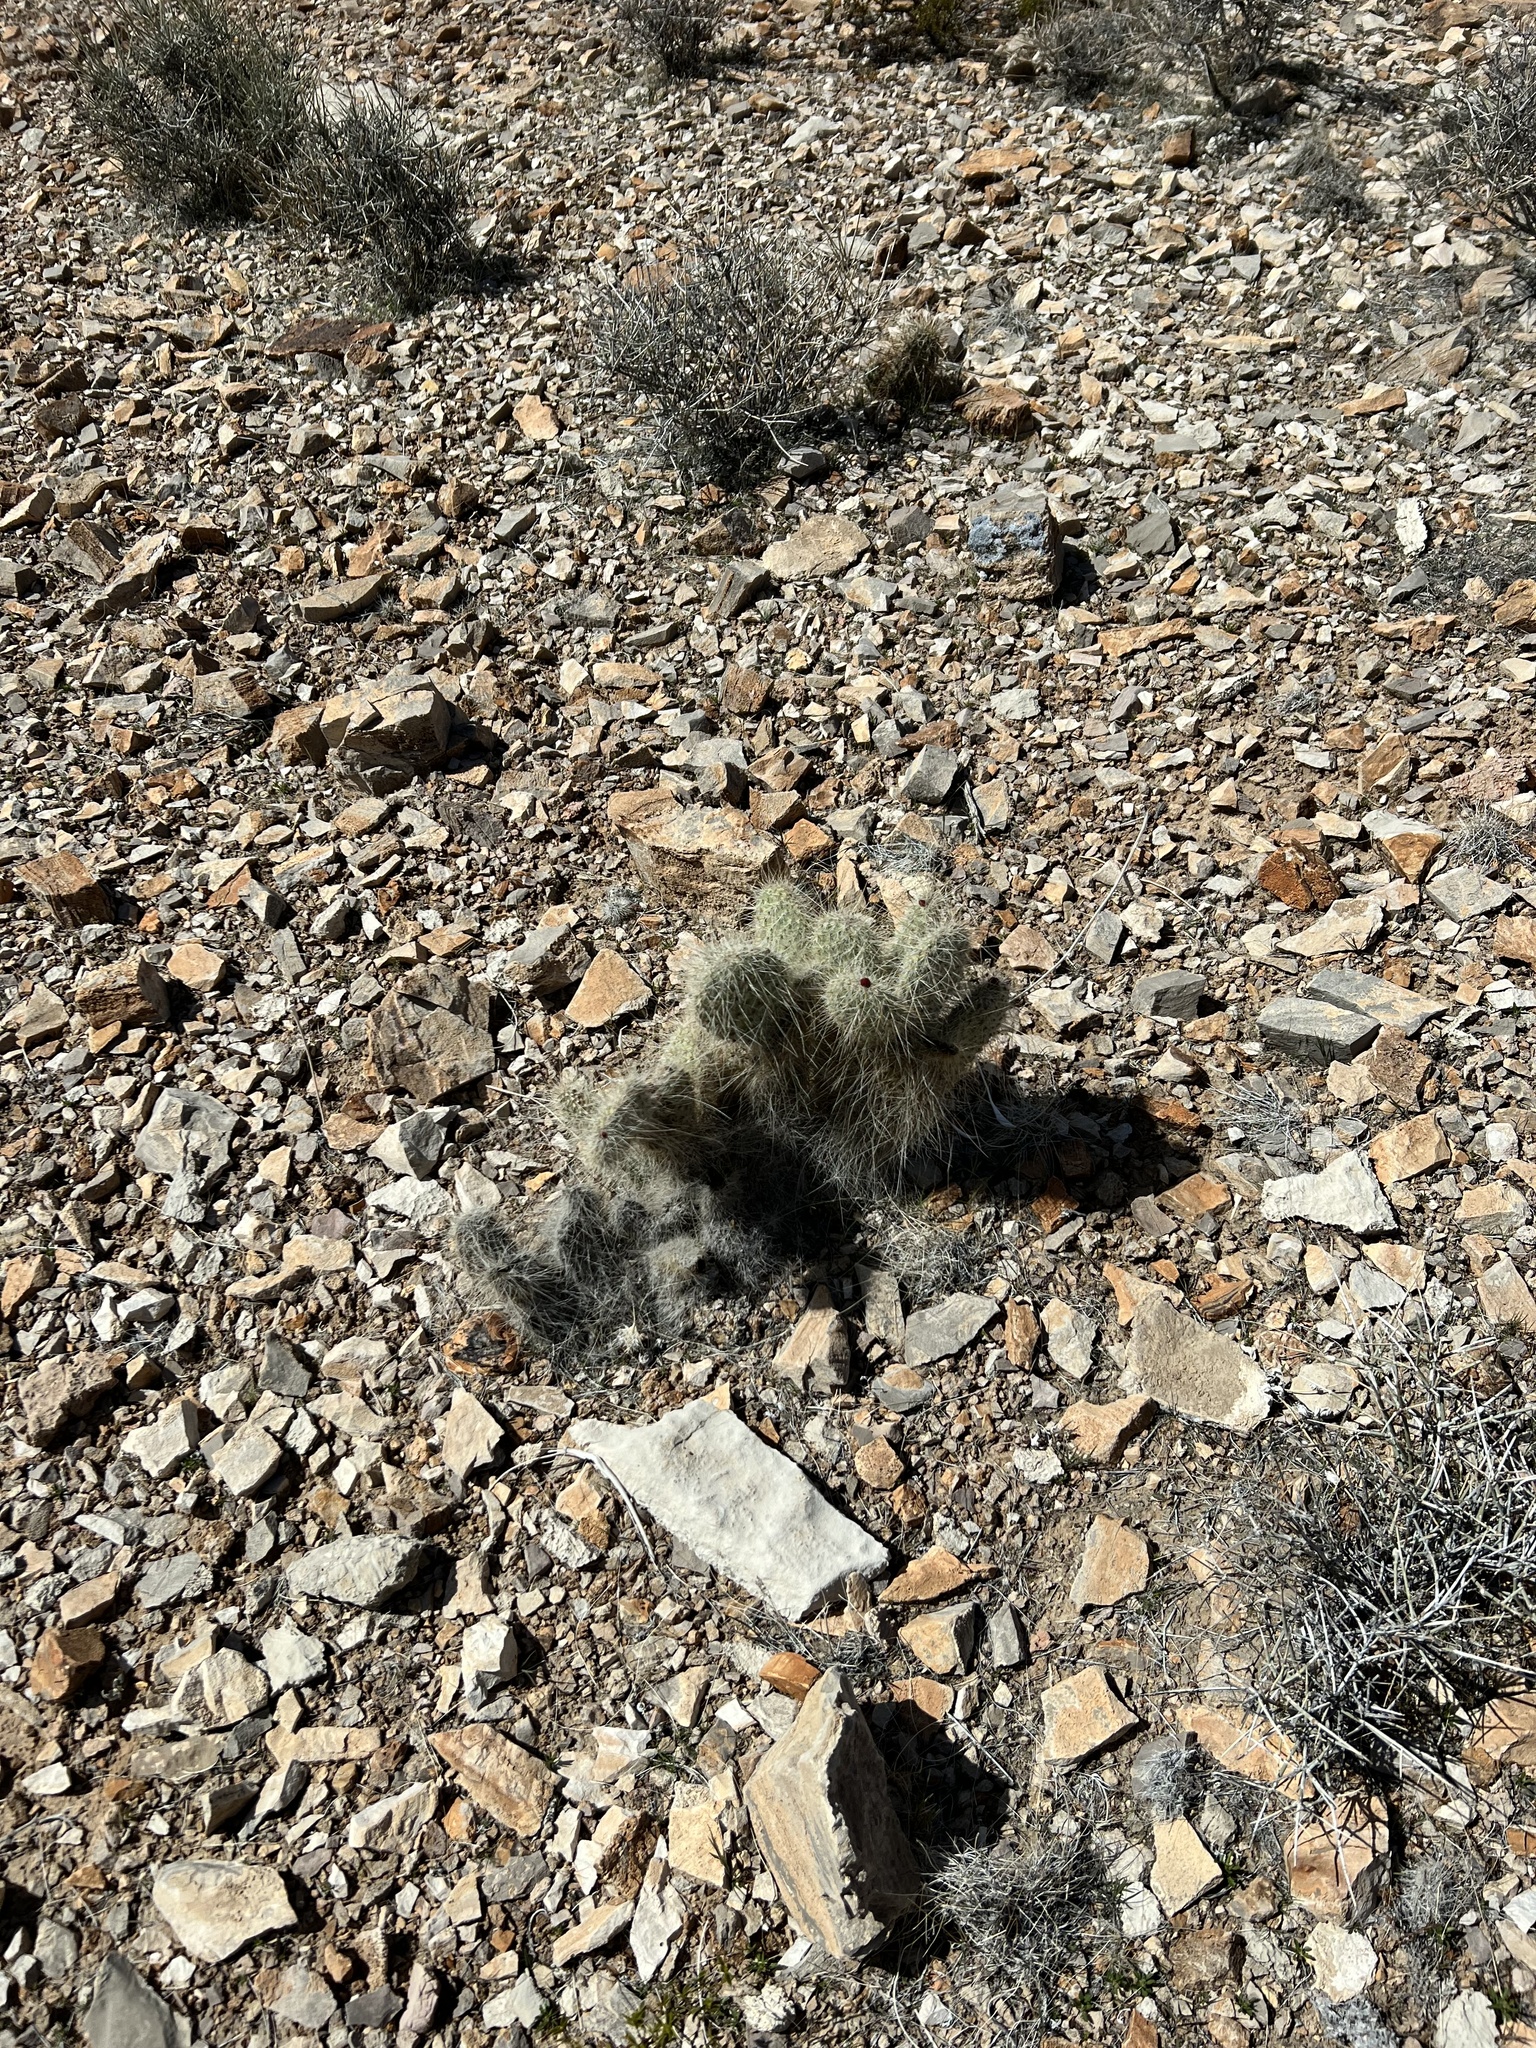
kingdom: Plantae
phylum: Tracheophyta
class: Magnoliopsida
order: Caryophyllales
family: Cactaceae
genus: Opuntia
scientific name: Opuntia polyacantha
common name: Plains prickly-pear
